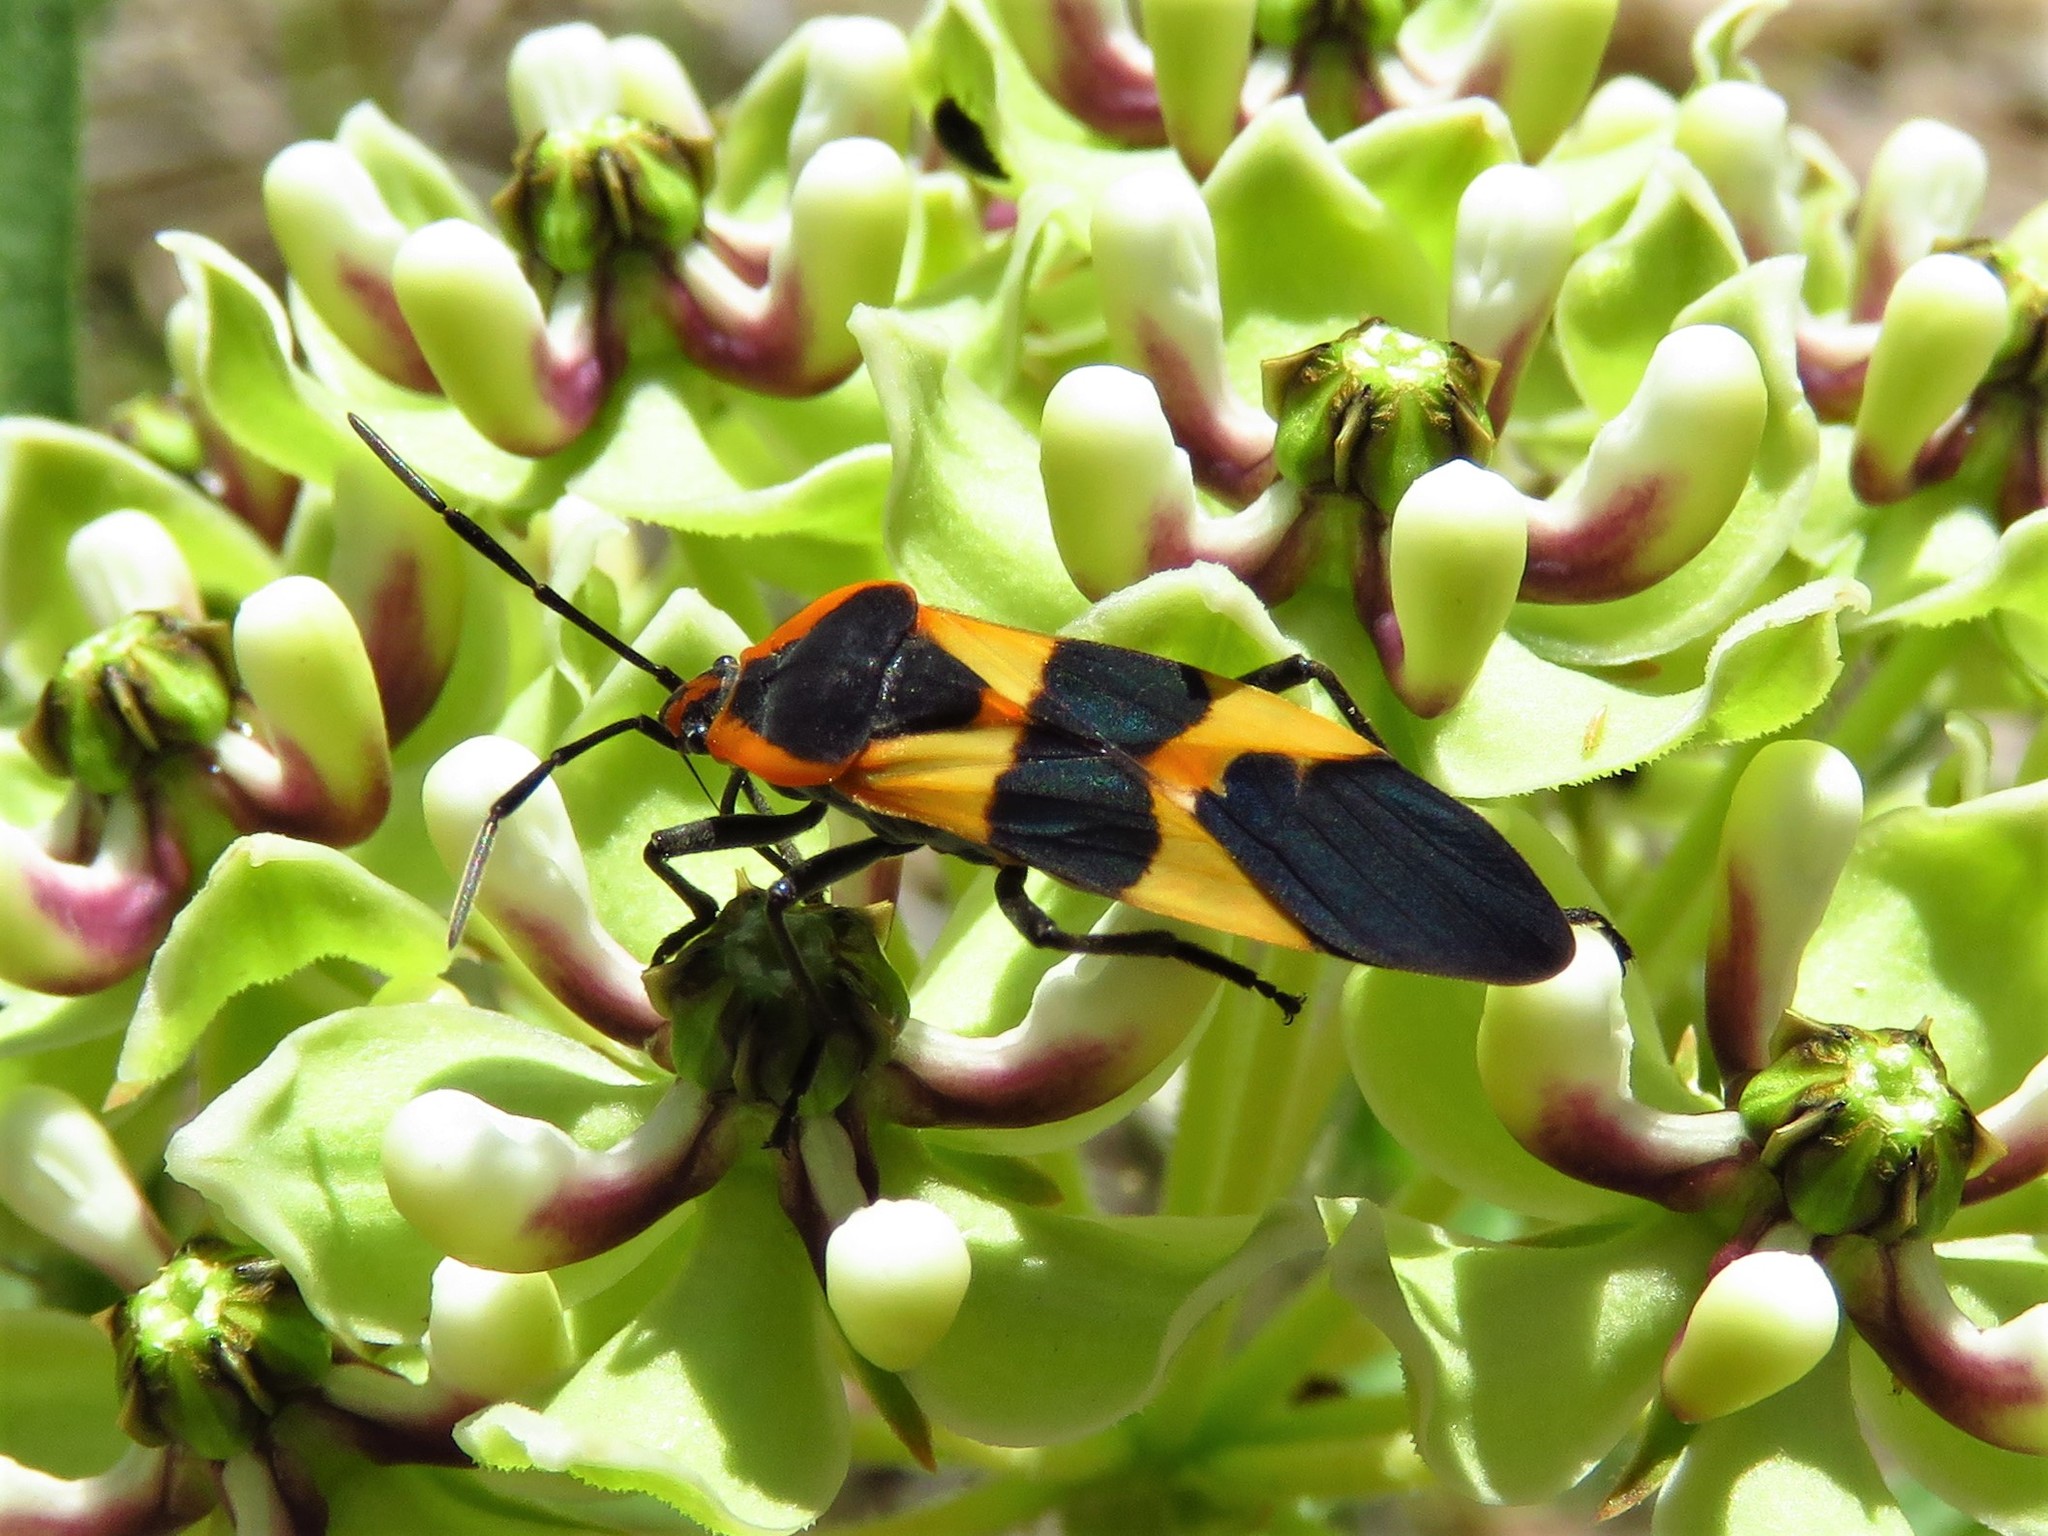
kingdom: Animalia
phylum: Arthropoda
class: Insecta
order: Hemiptera
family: Lygaeidae
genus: Oncopeltus
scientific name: Oncopeltus fasciatus
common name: Large milkweed bug
